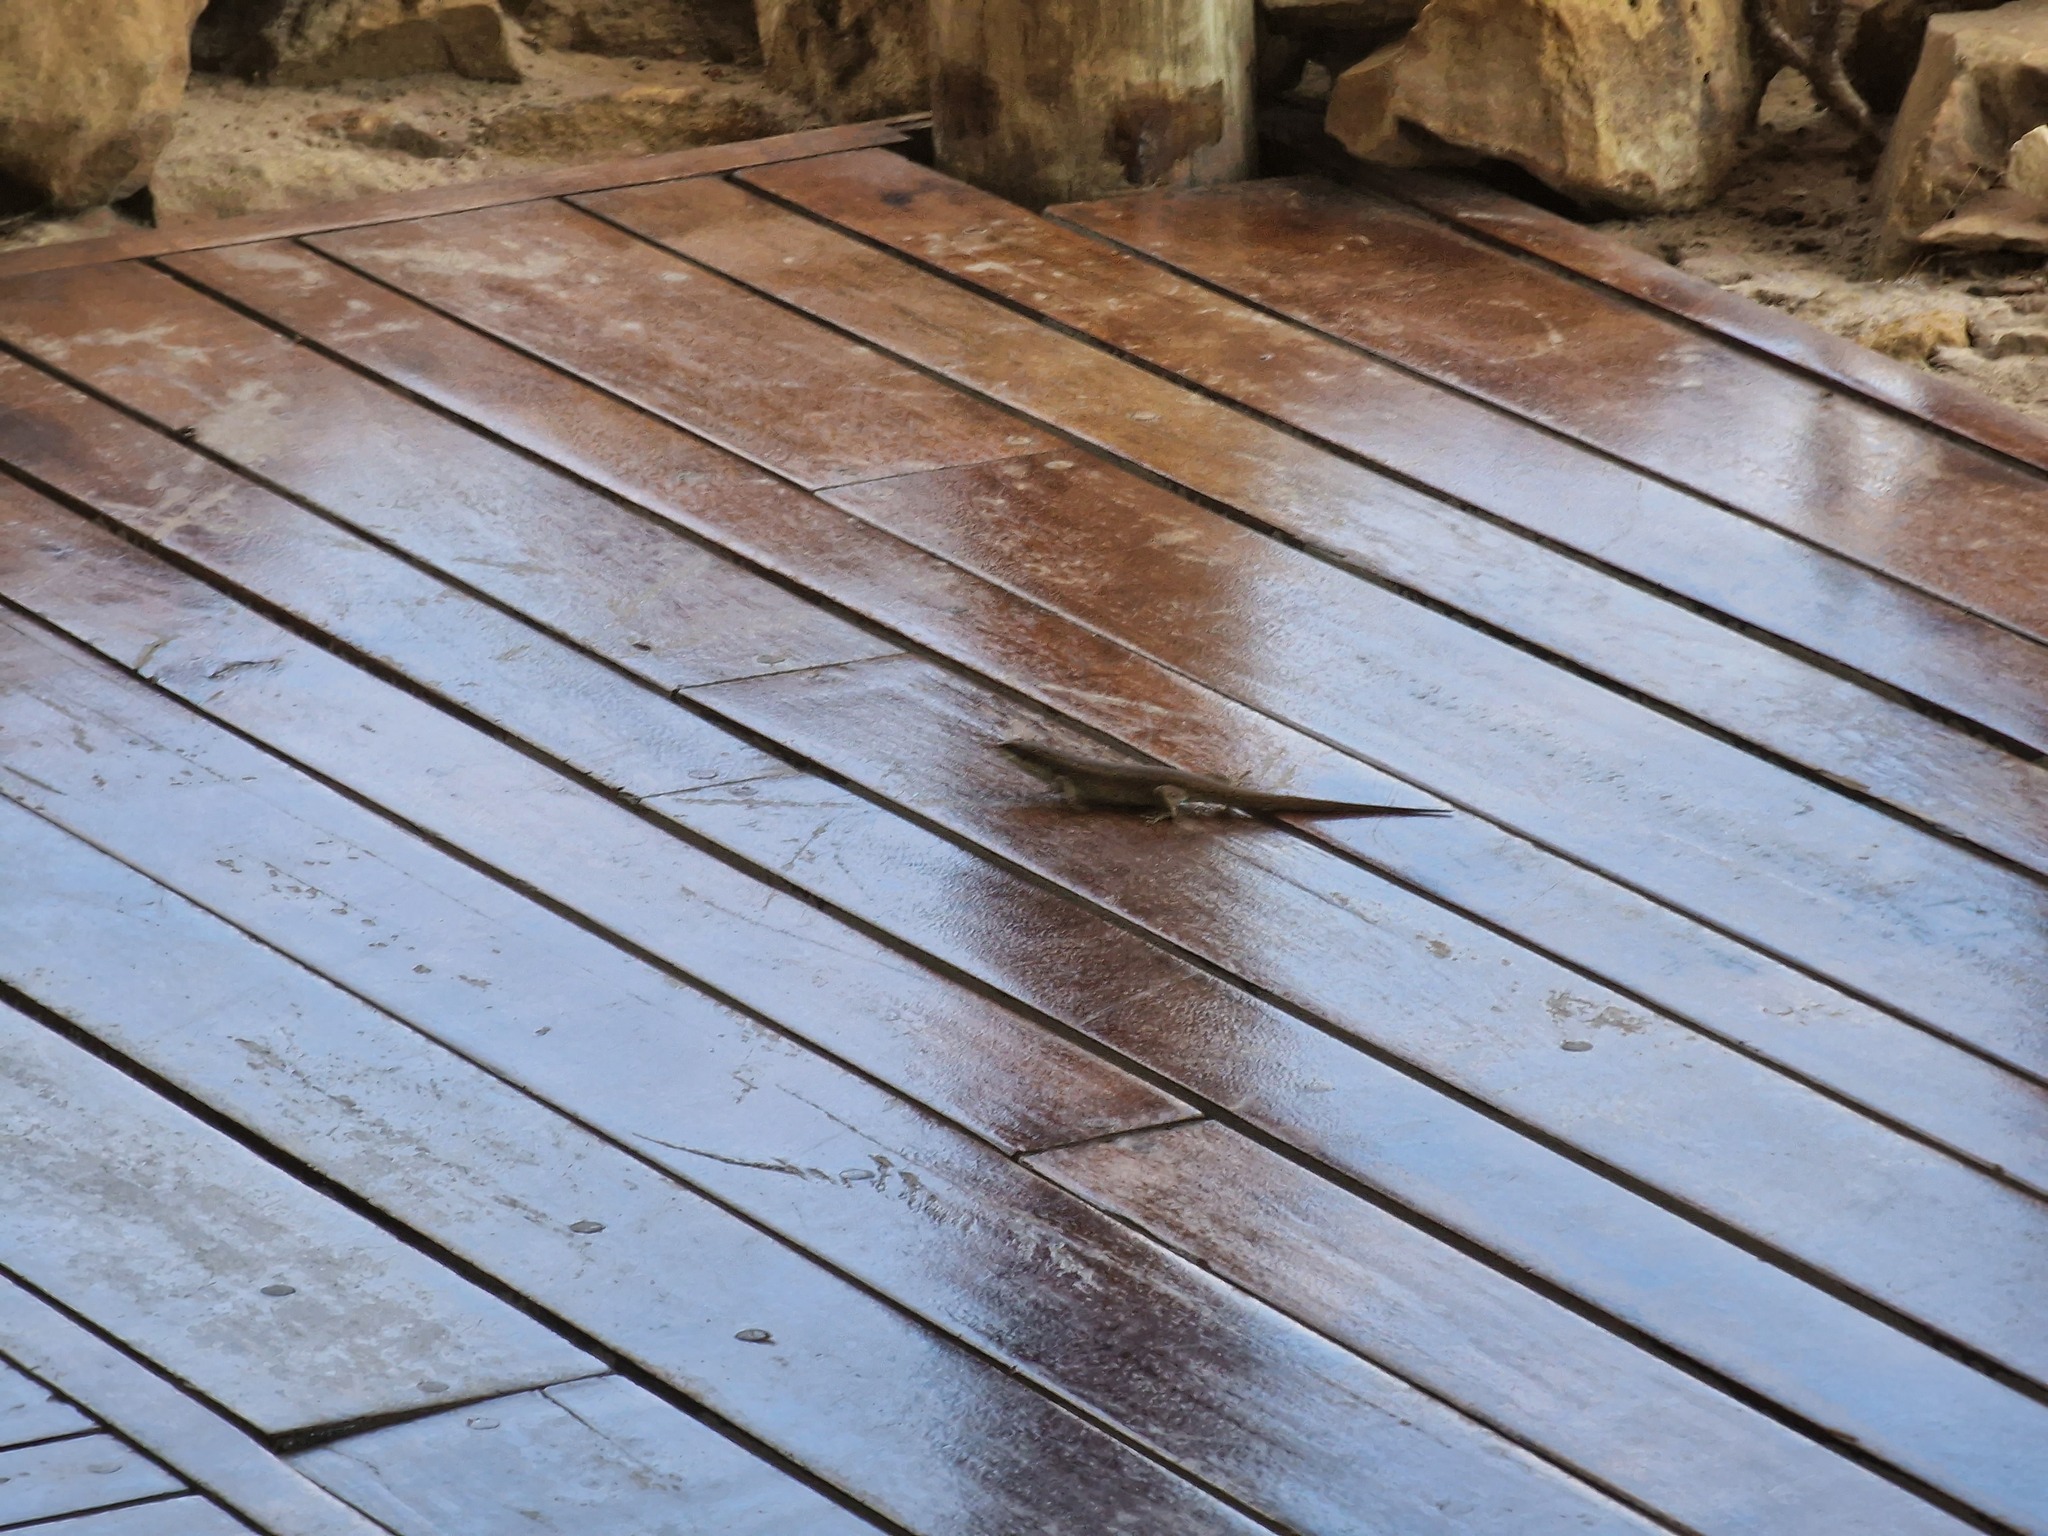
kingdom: Animalia
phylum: Chordata
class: Squamata
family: Scincidae
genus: Trachylepis
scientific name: Trachylepis wahlbergii
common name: Wahlberg’s striped skink
